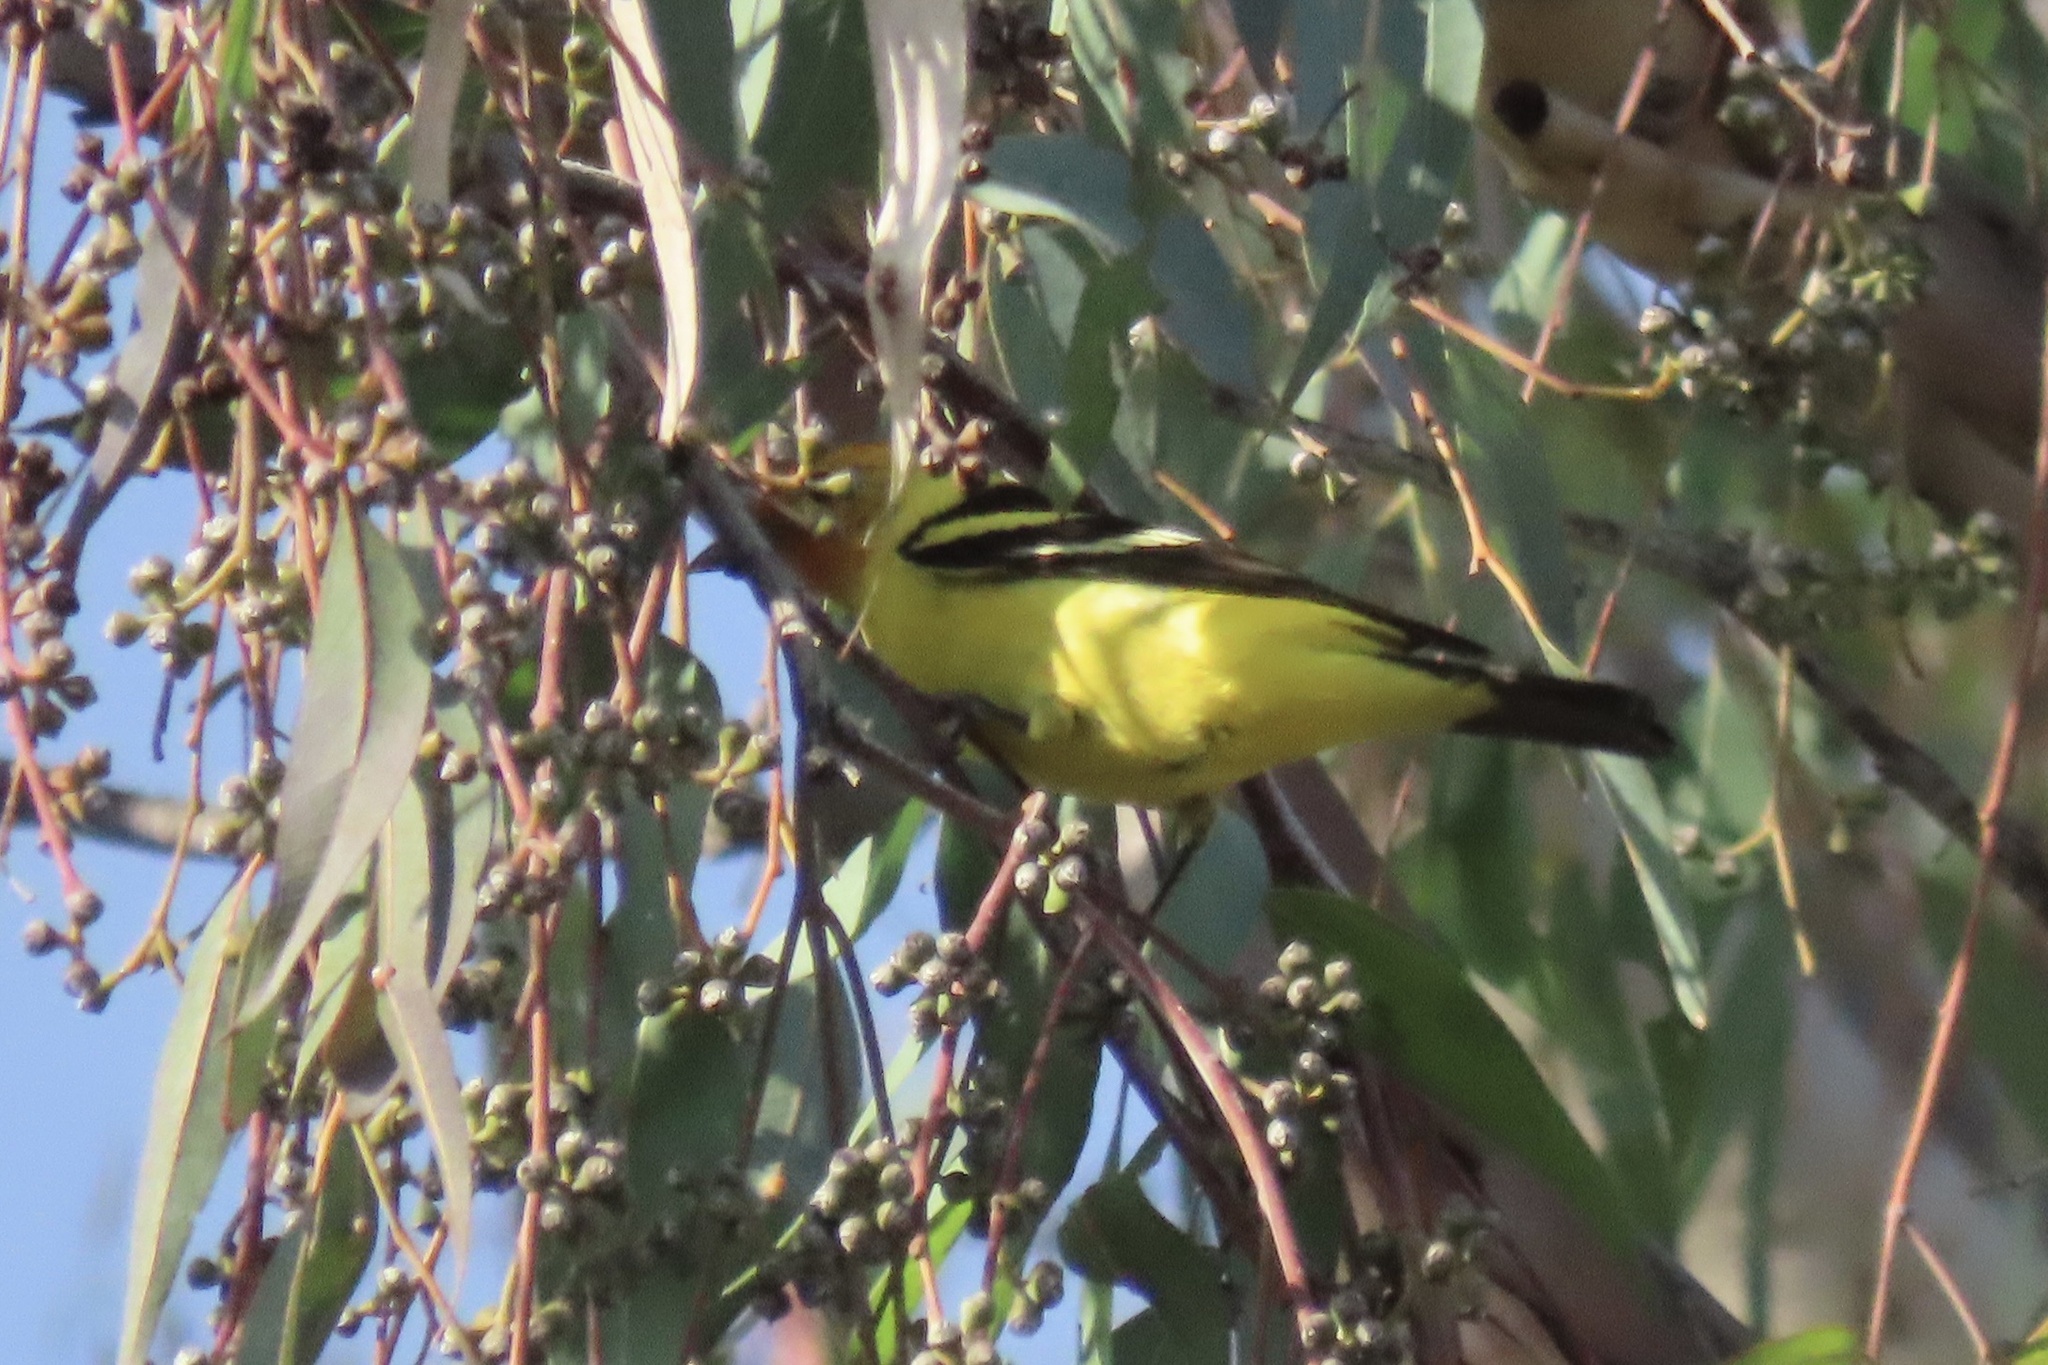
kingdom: Animalia
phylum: Chordata
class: Aves
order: Passeriformes
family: Cardinalidae
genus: Piranga
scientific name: Piranga ludoviciana
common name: Western tanager
